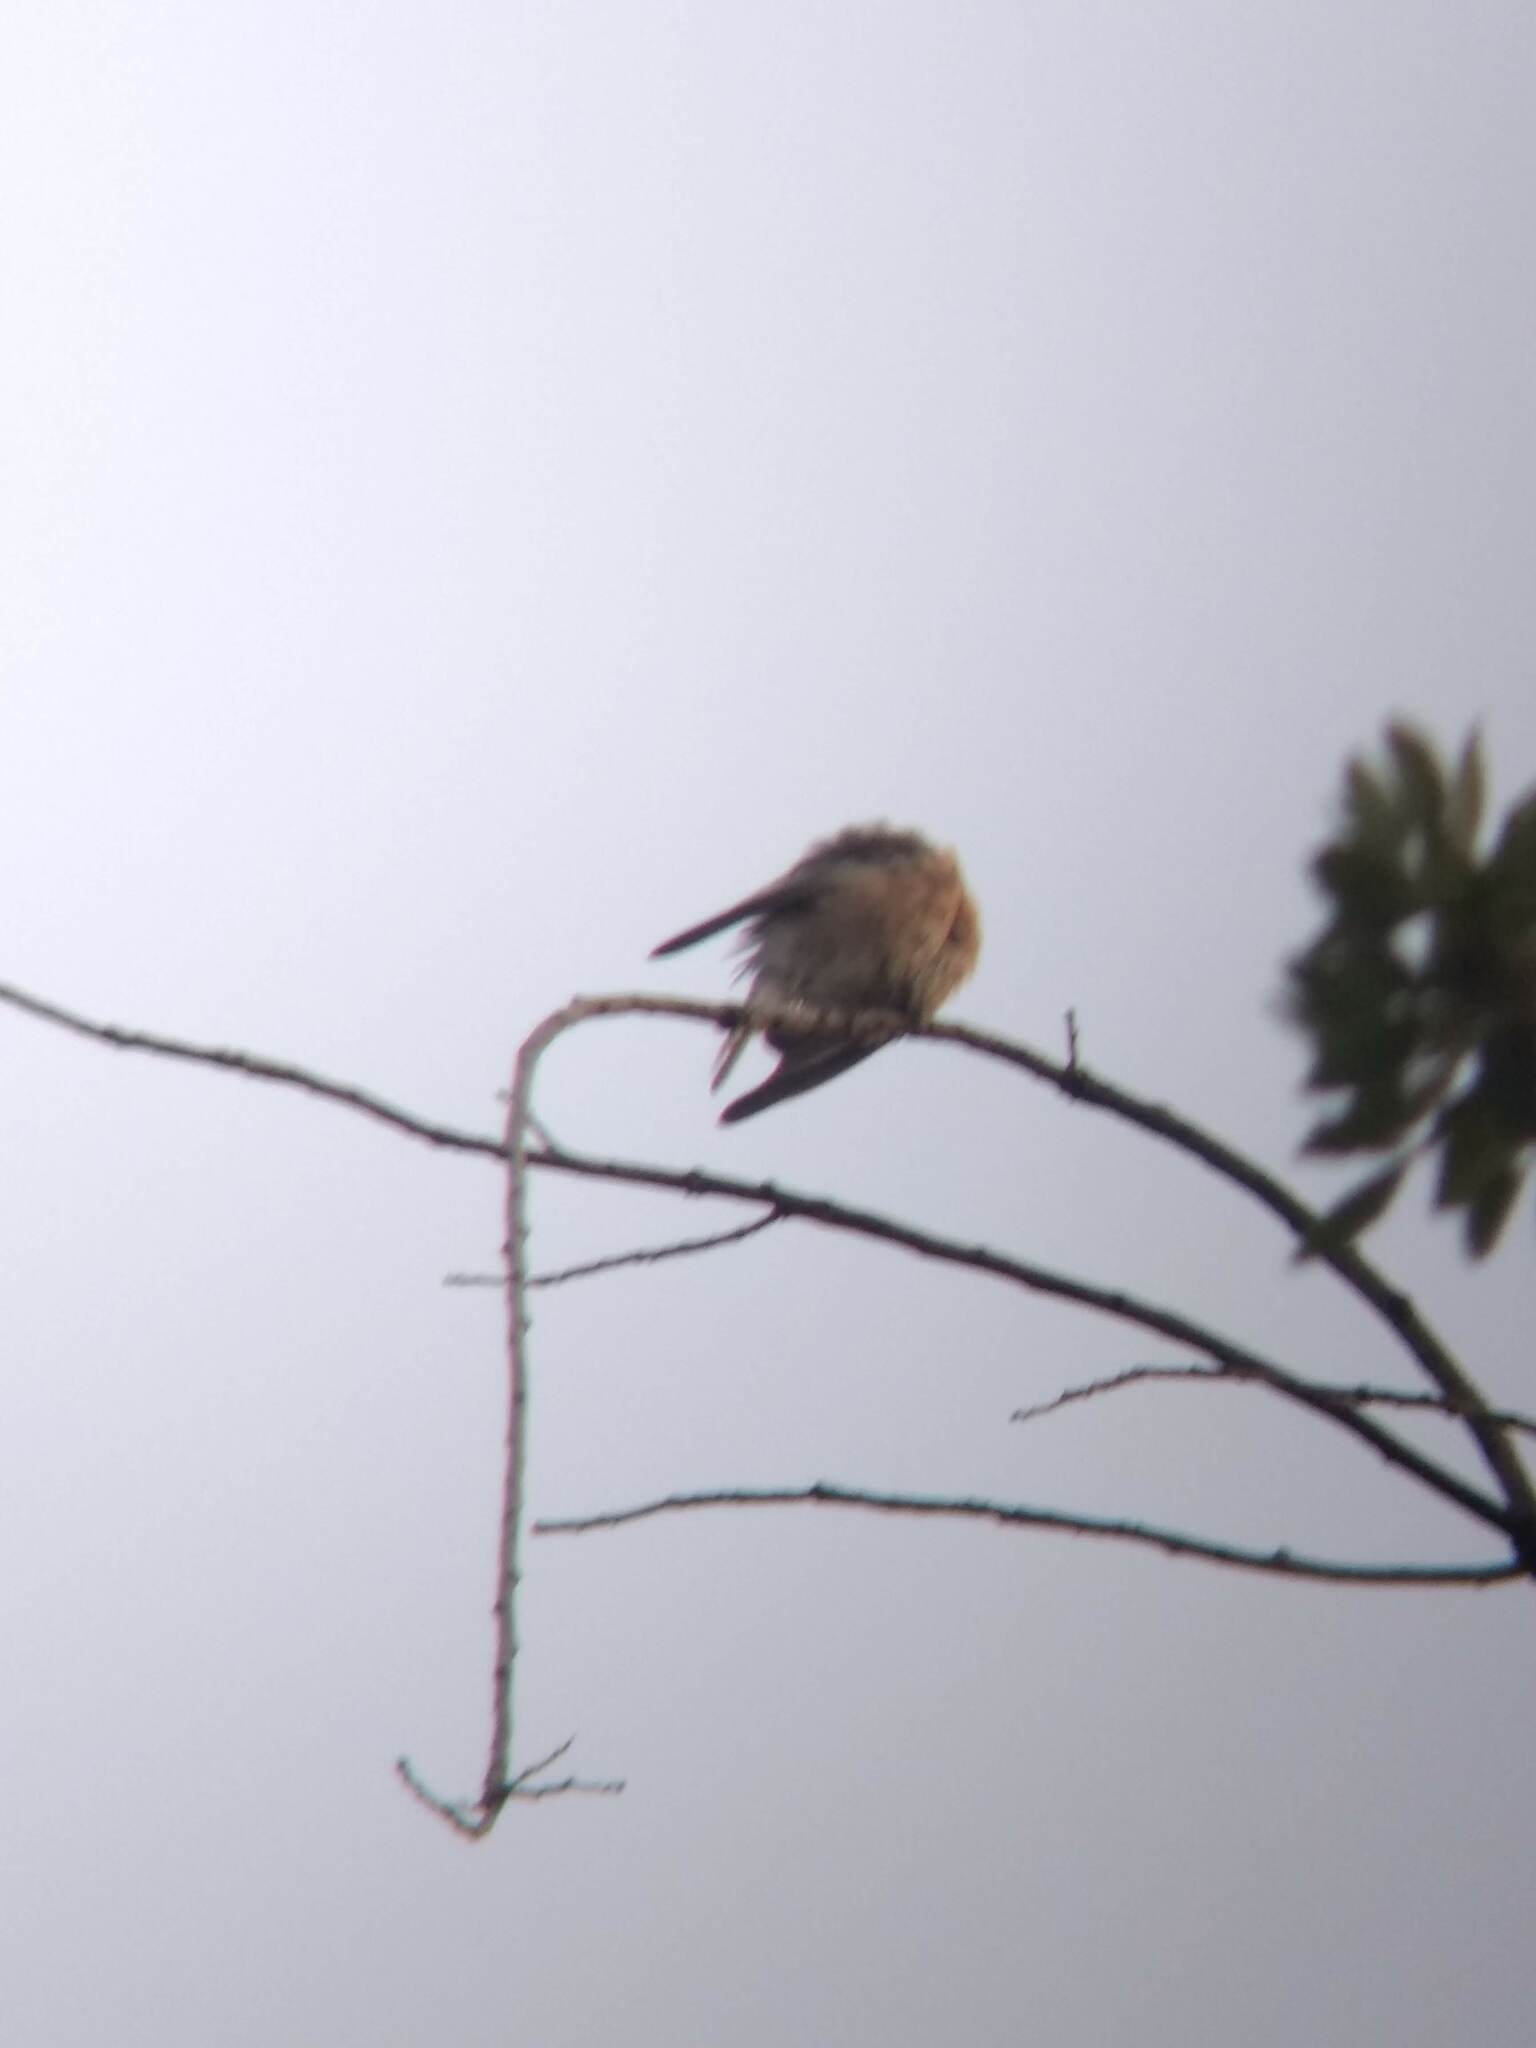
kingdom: Animalia
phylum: Chordata
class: Aves
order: Passeriformes
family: Turdidae
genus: Sialia
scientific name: Sialia mexicana
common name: Western bluebird
